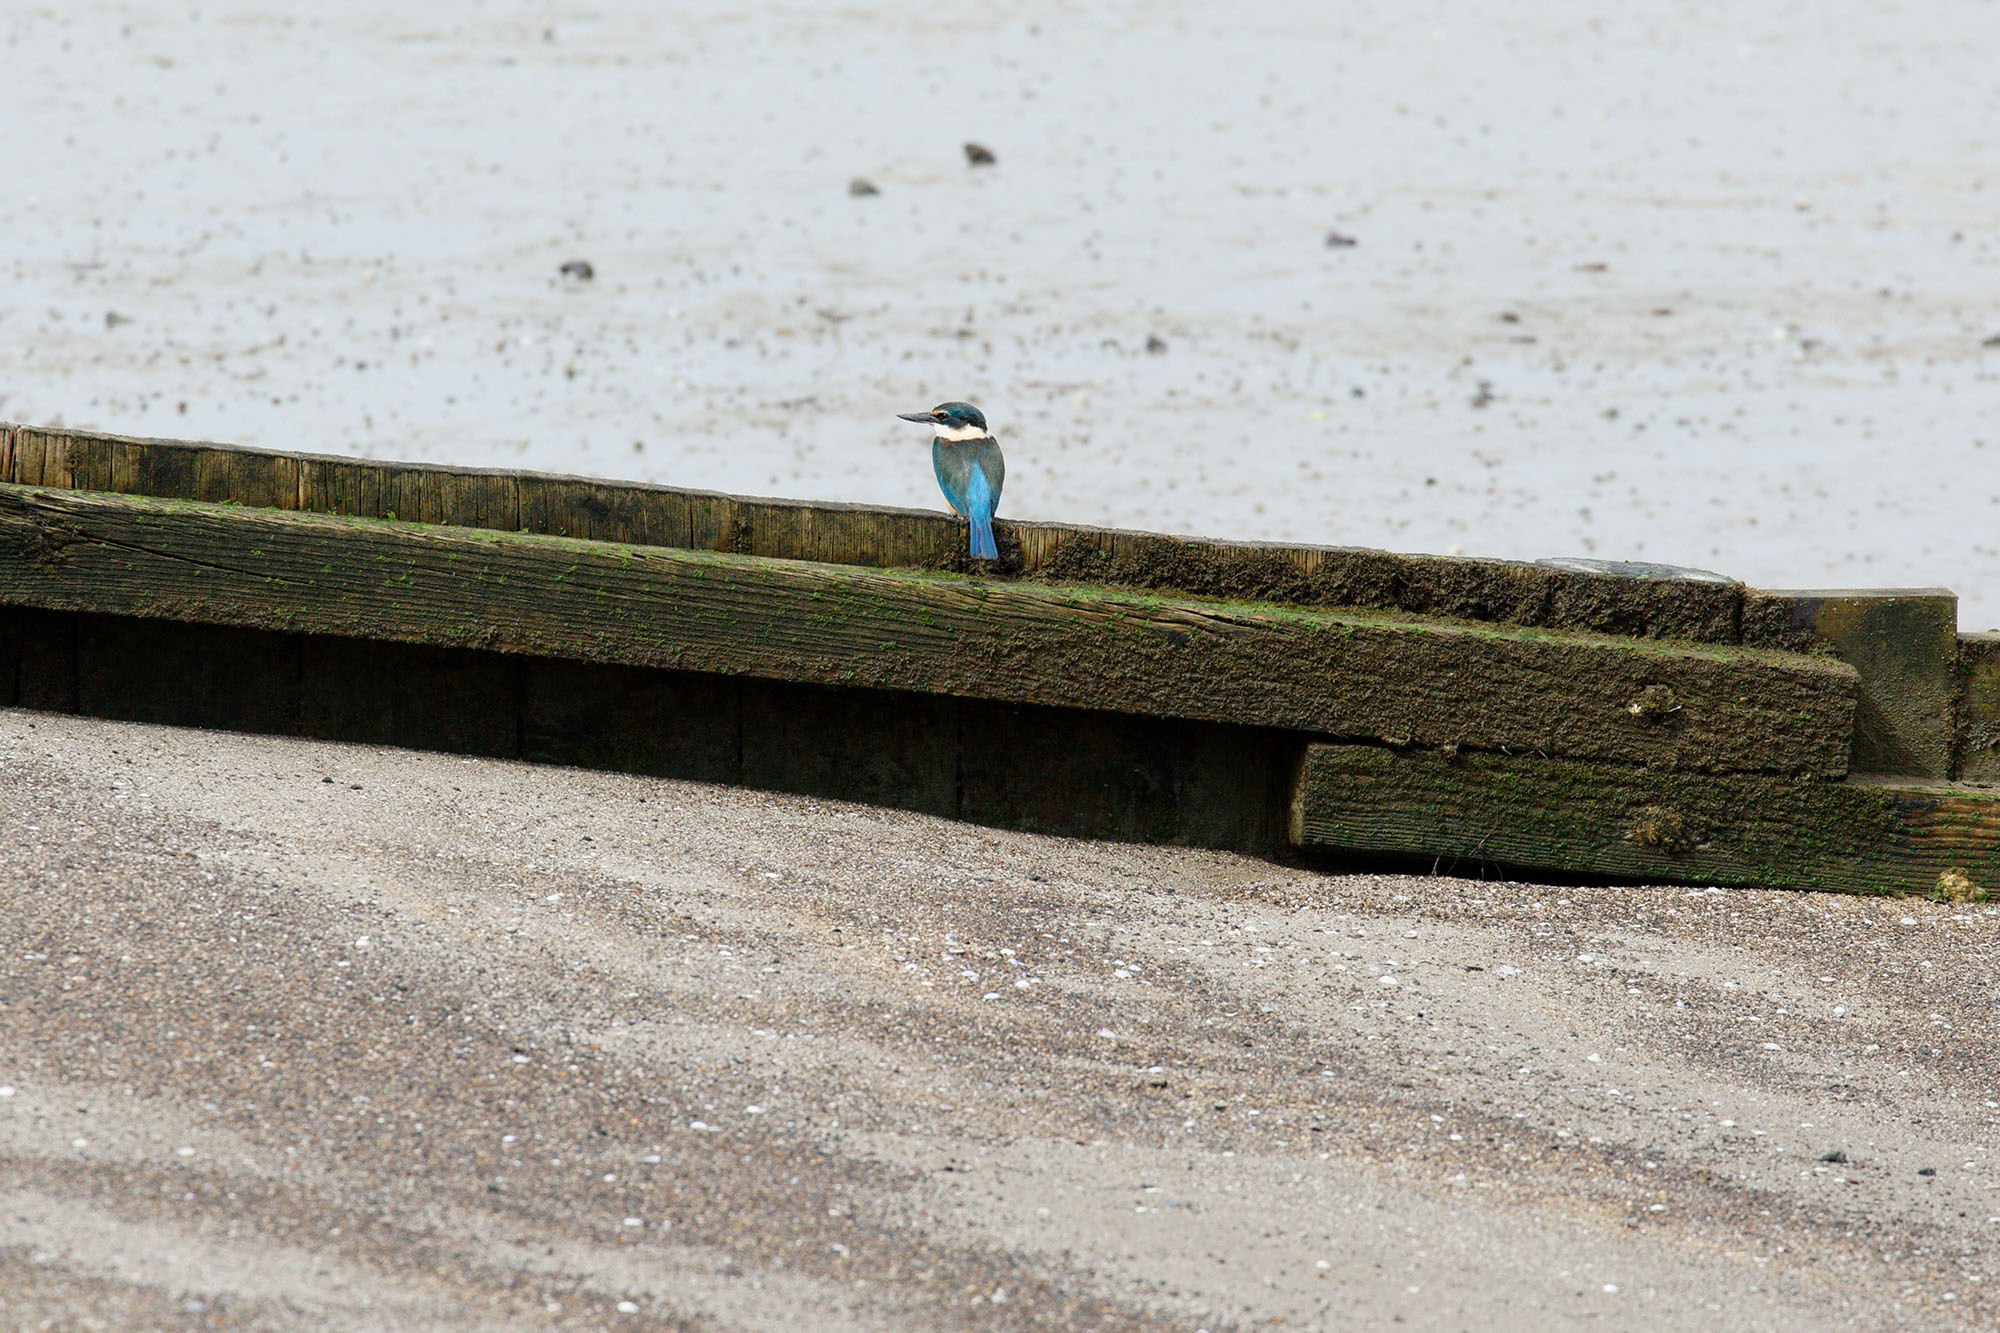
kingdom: Animalia
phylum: Chordata
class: Aves
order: Coraciiformes
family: Alcedinidae
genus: Todiramphus
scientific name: Todiramphus sanctus
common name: Sacred kingfisher
